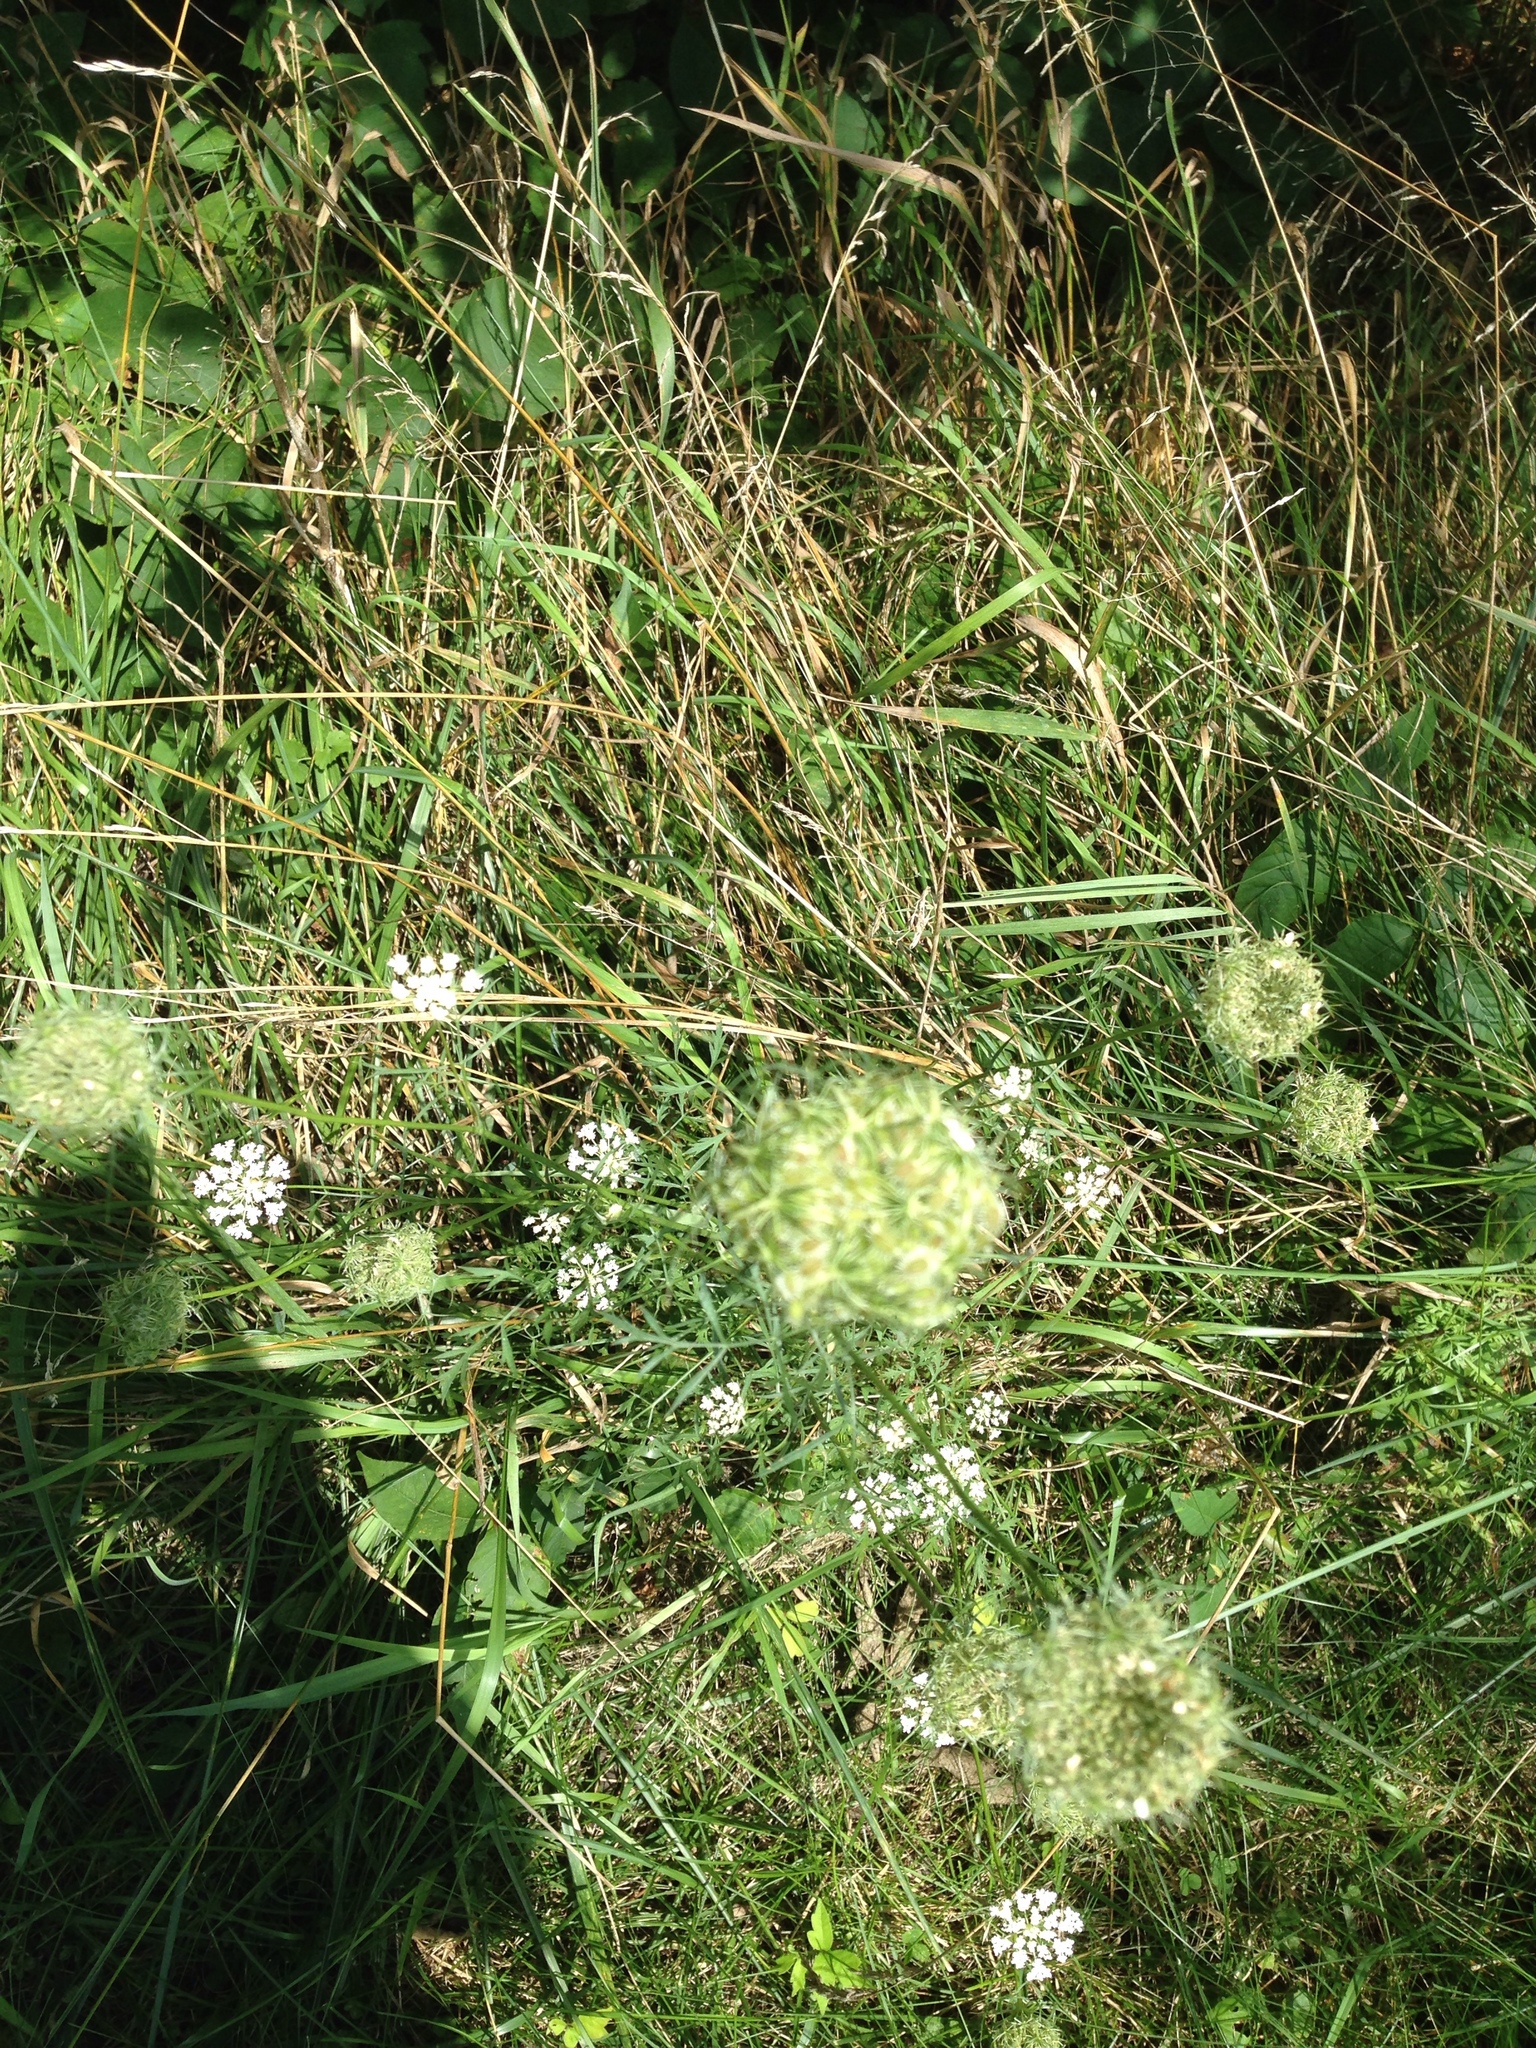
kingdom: Plantae
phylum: Tracheophyta
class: Magnoliopsida
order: Apiales
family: Apiaceae
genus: Daucus
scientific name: Daucus carota
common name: Wild carrot
